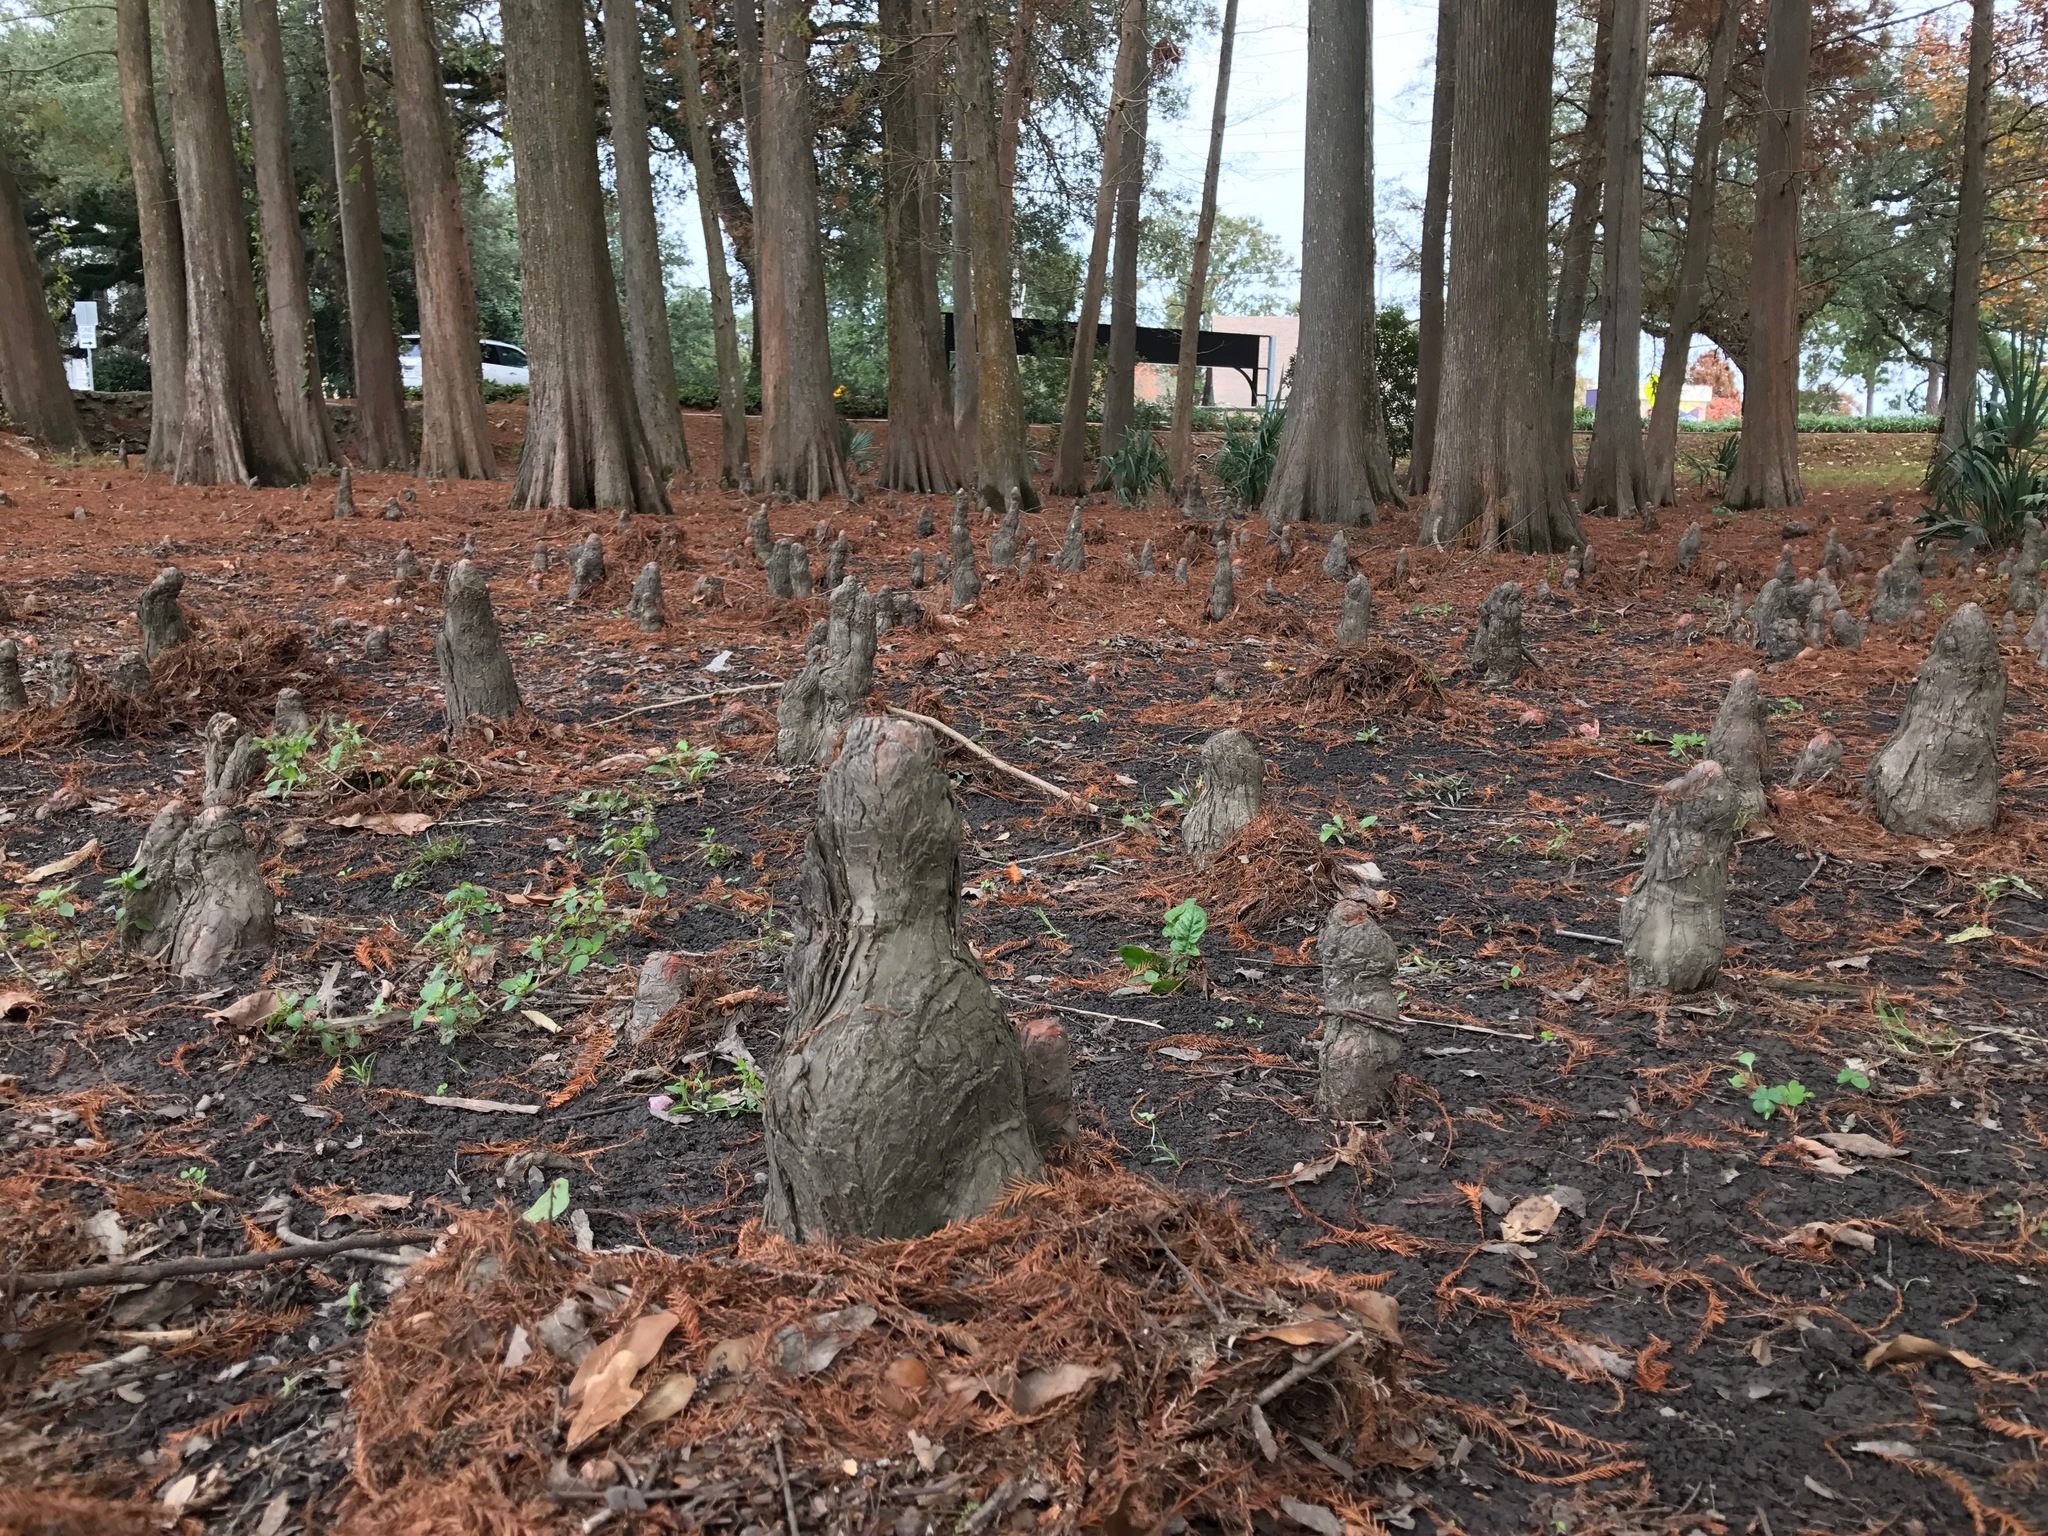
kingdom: Plantae
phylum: Tracheophyta
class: Pinopsida
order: Pinales
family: Cupressaceae
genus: Taxodium
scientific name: Taxodium distichum
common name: Bald cypress
